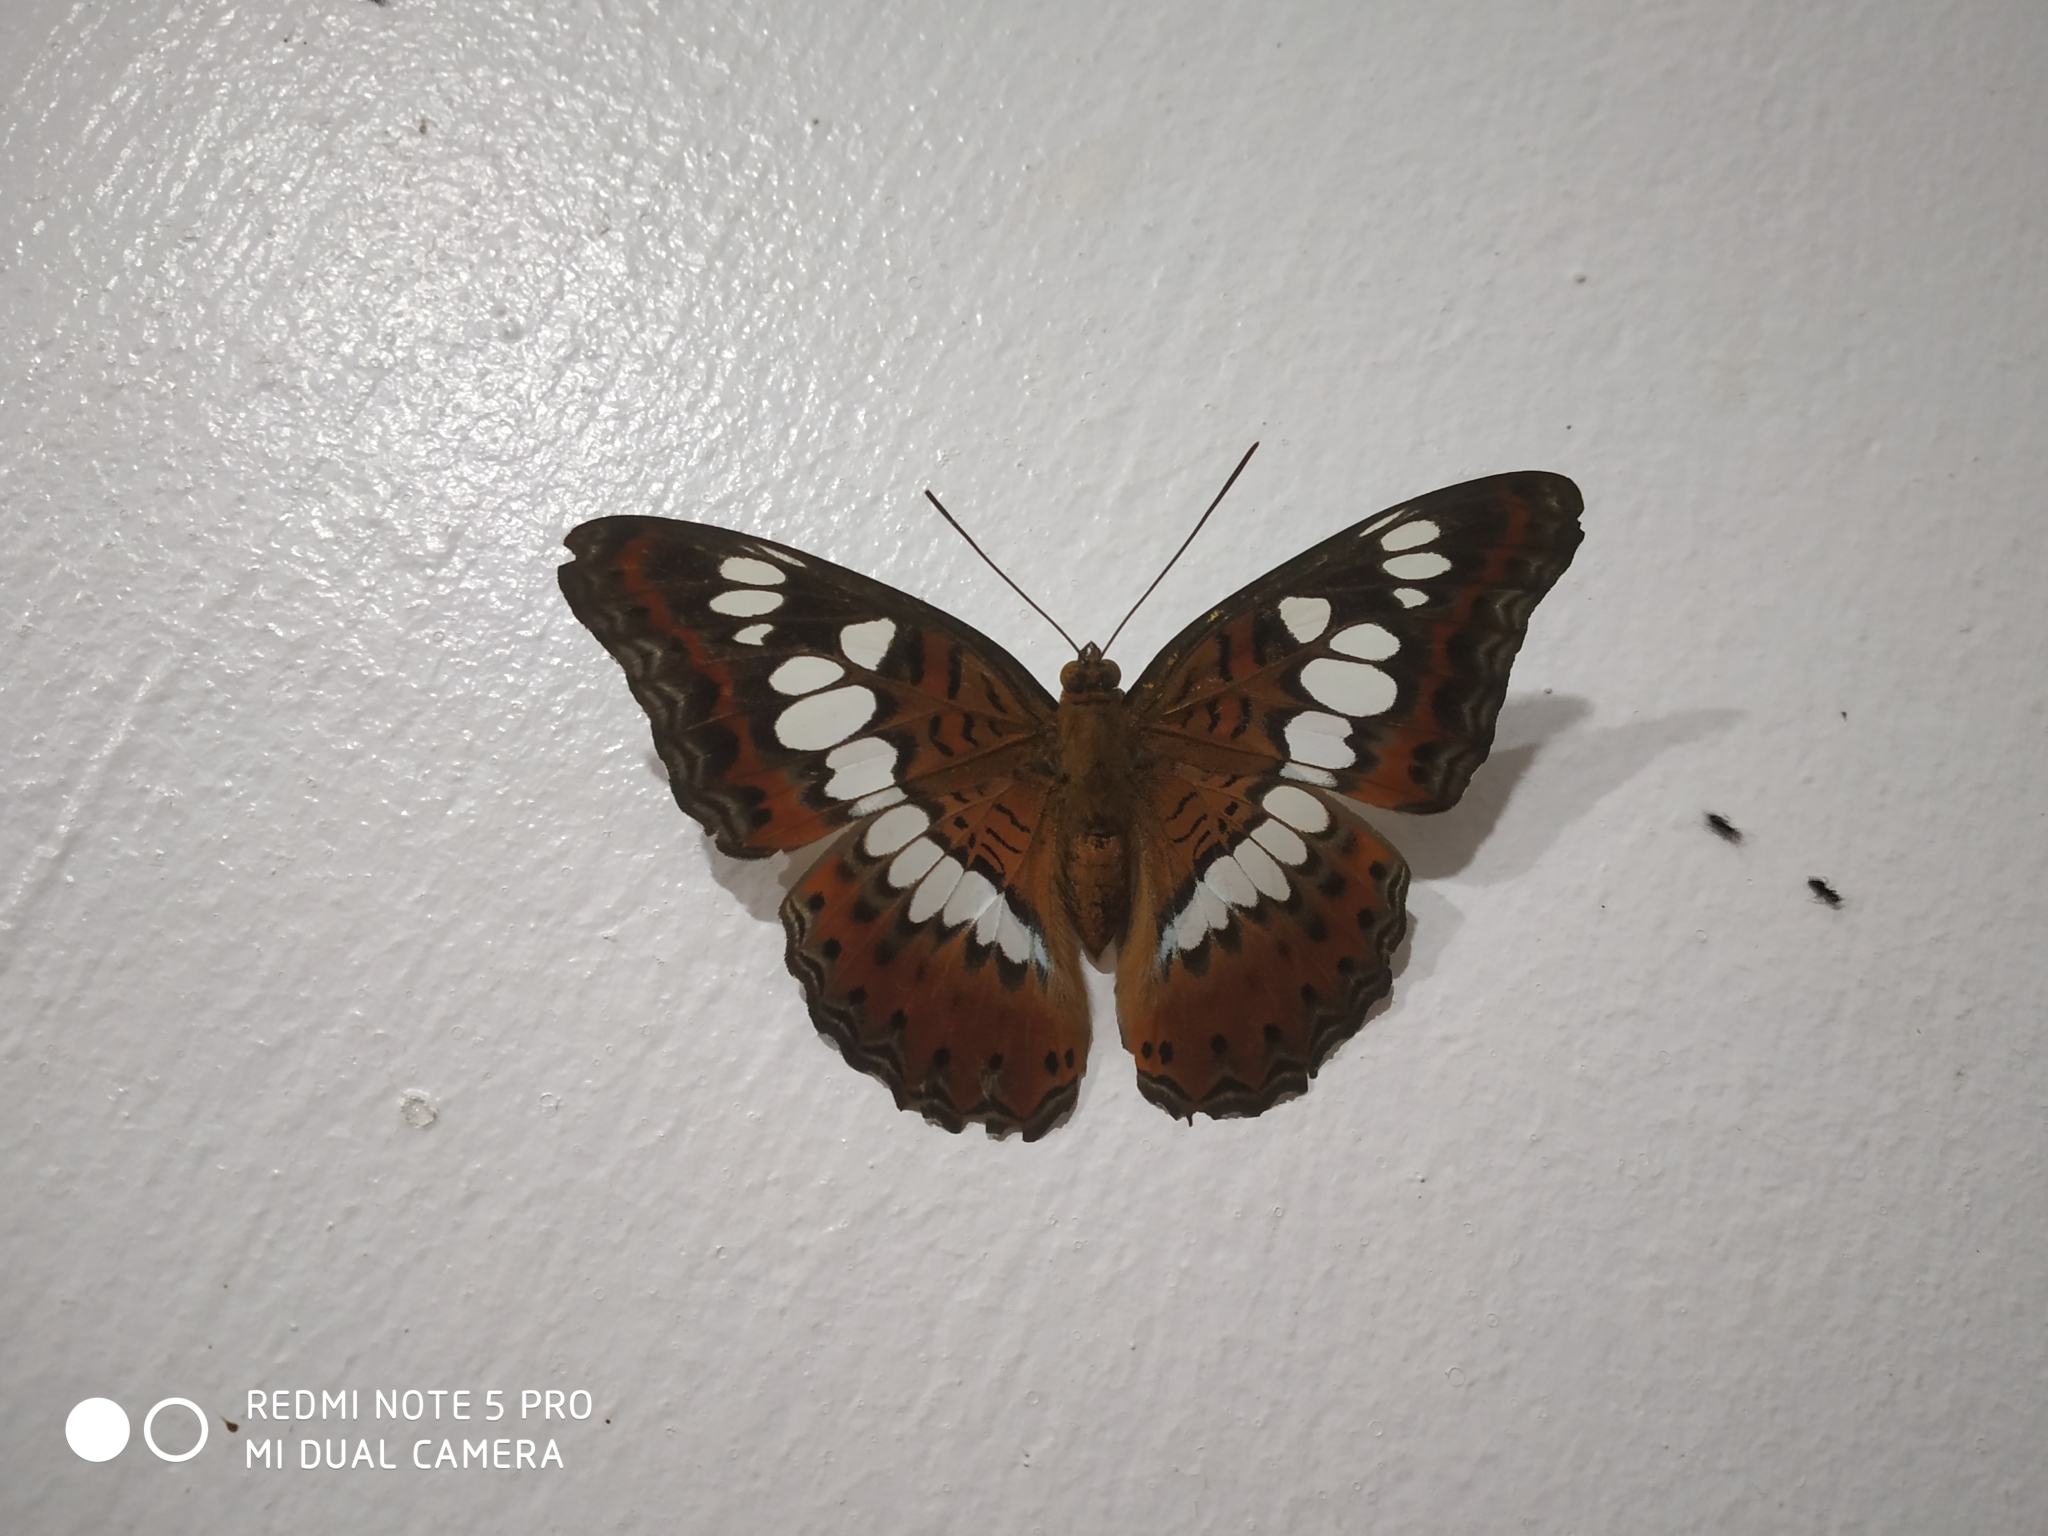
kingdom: Animalia
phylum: Arthropoda
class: Insecta
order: Lepidoptera
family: Nymphalidae
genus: Limenitis
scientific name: Limenitis Moduza procris
